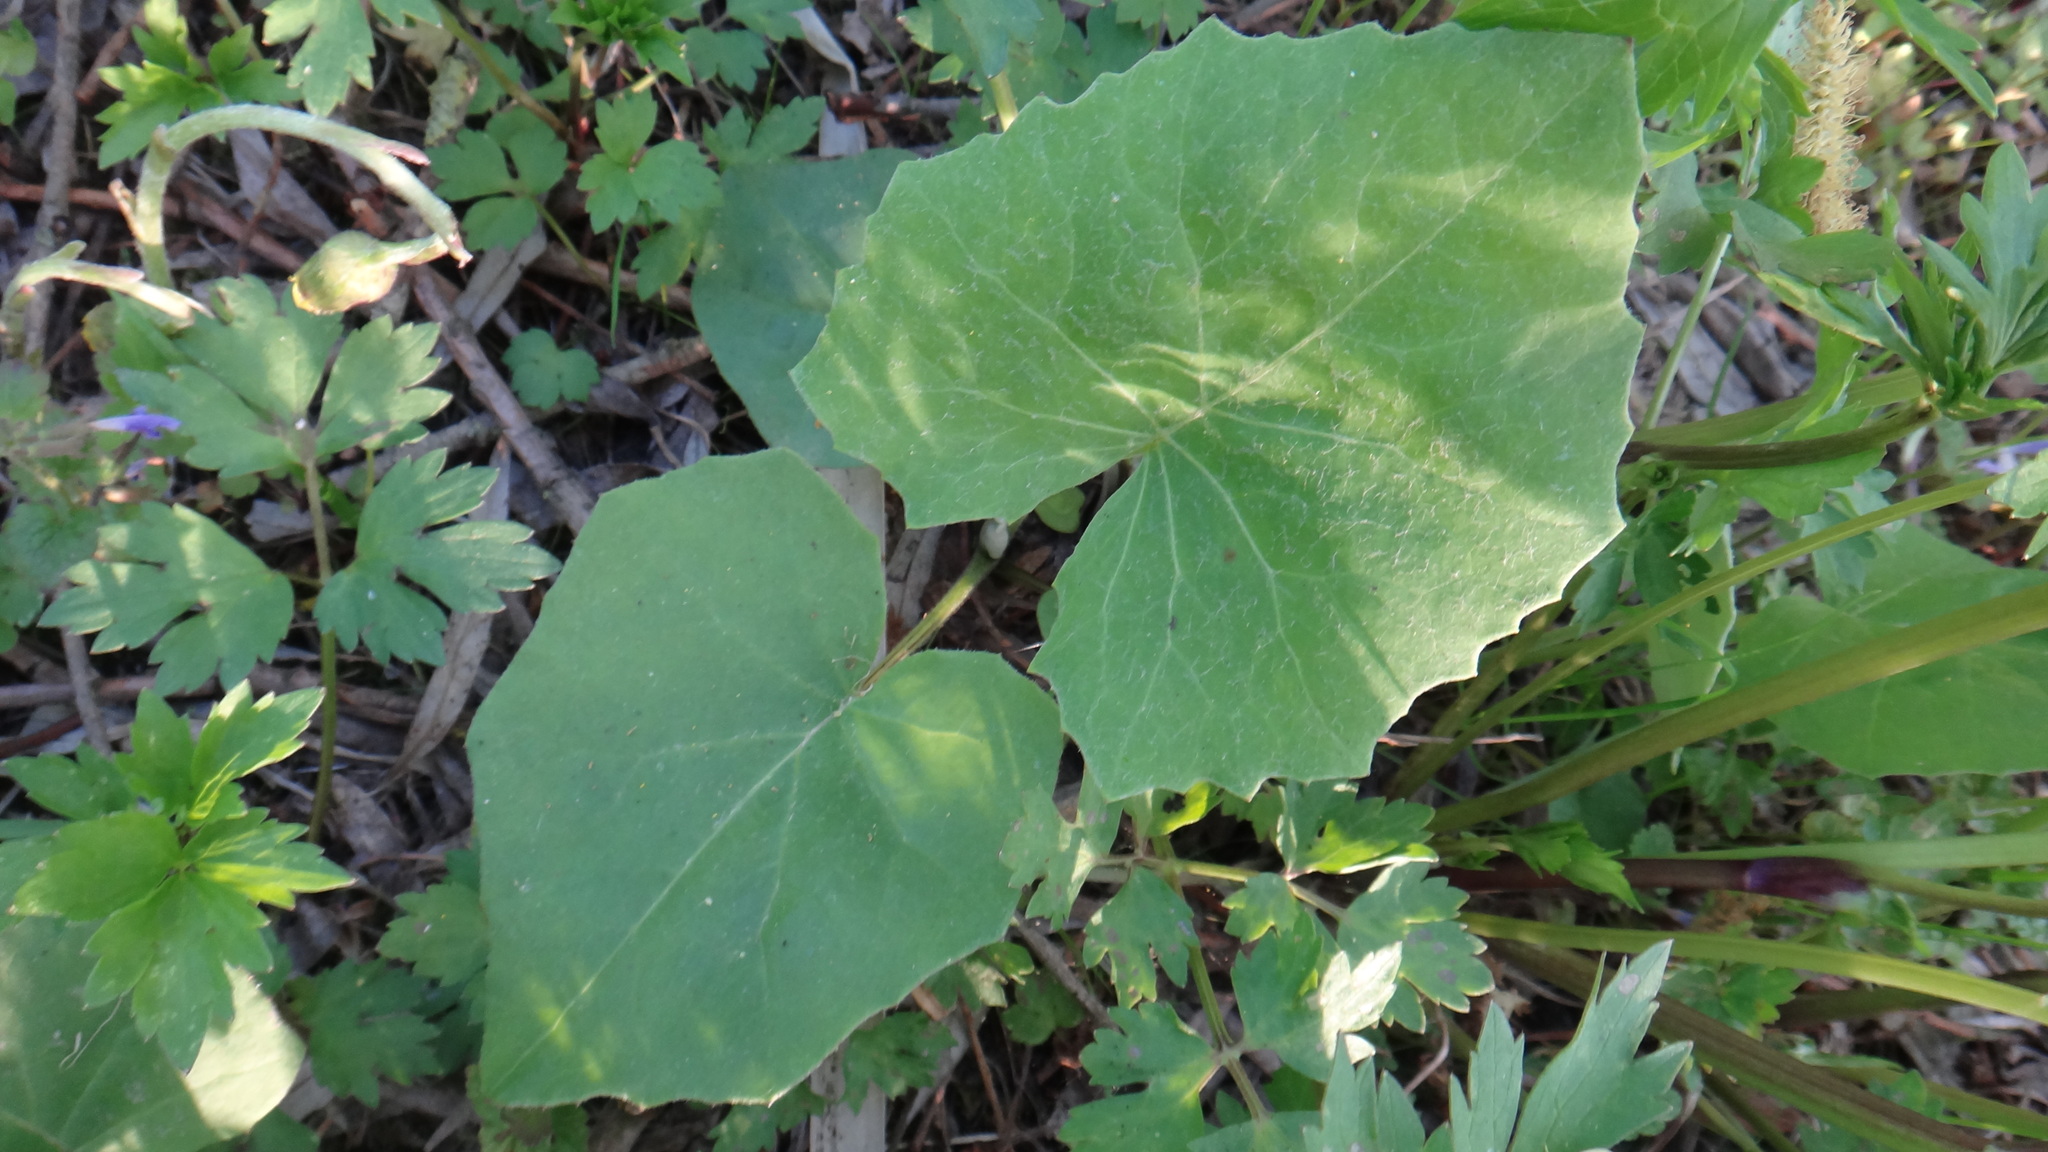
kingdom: Plantae
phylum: Tracheophyta
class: Magnoliopsida
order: Asterales
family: Asteraceae
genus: Tussilago
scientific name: Tussilago farfara
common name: Coltsfoot
